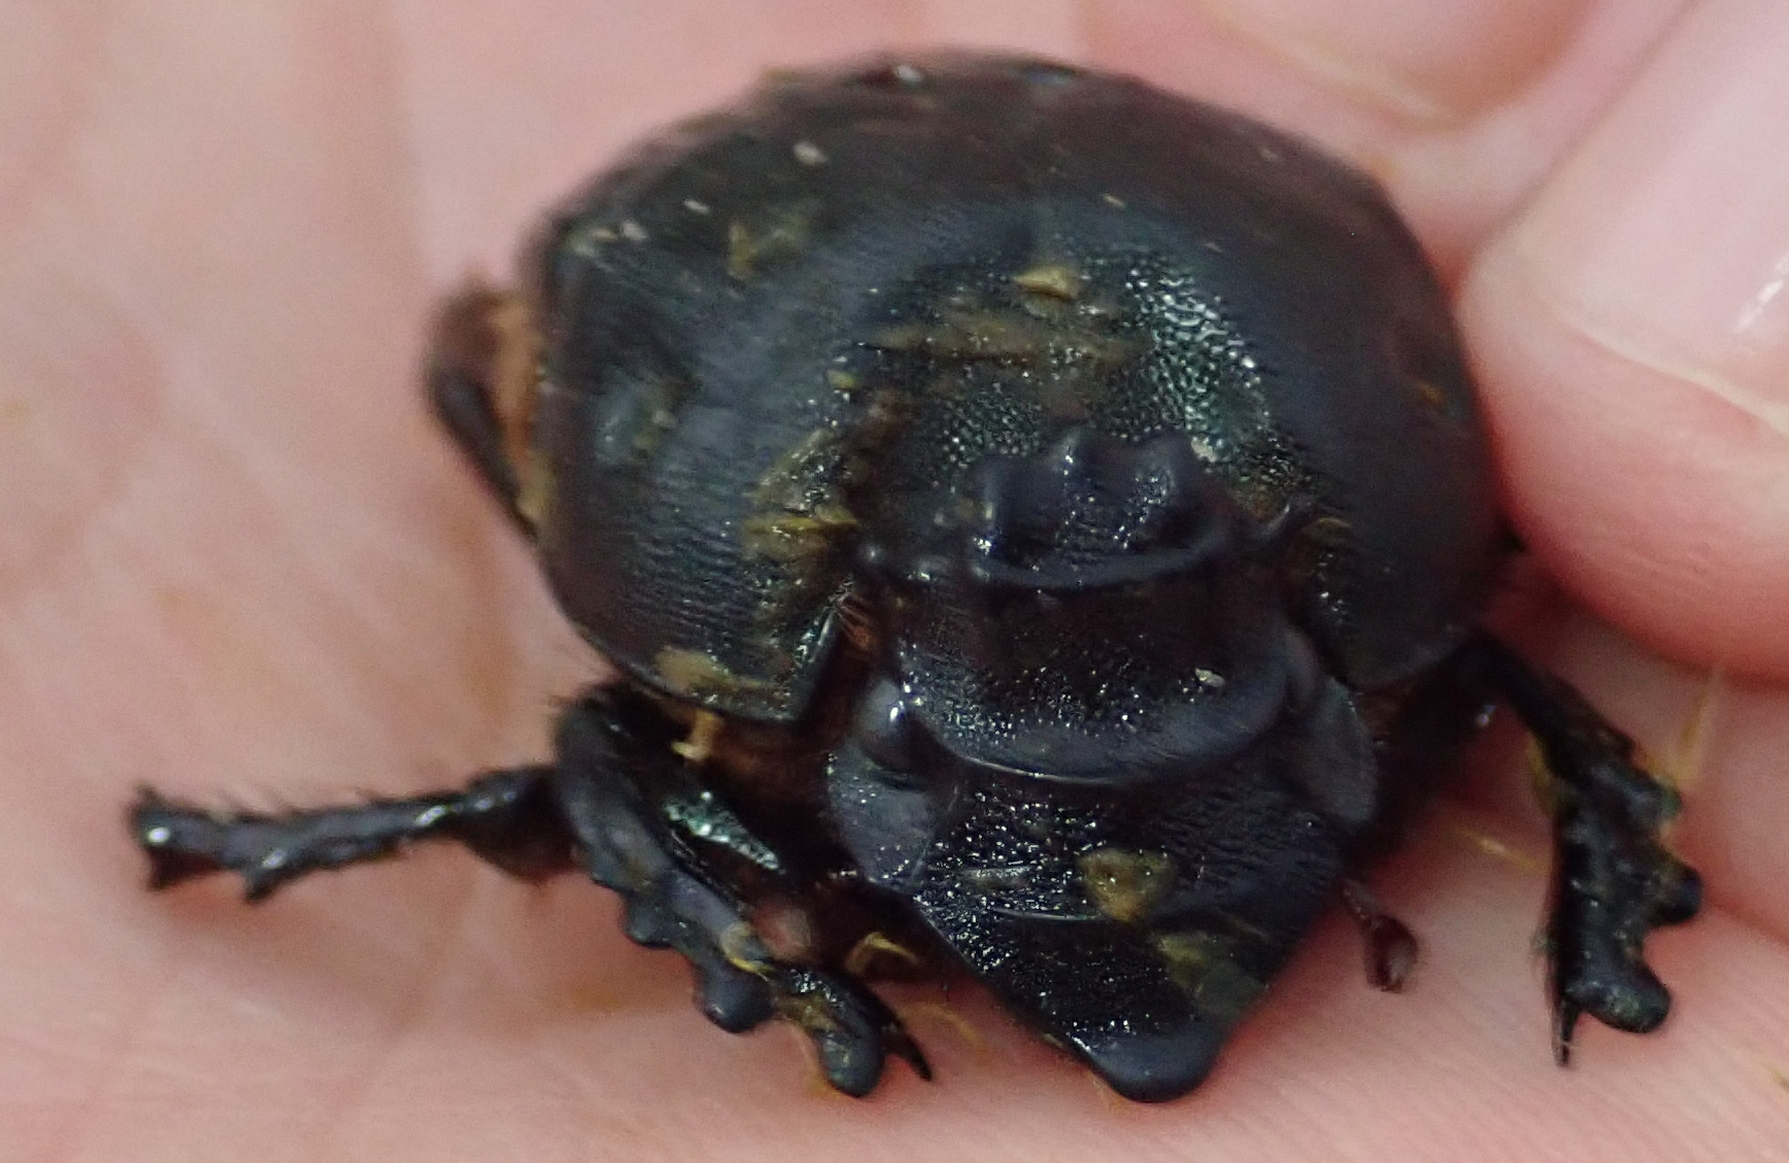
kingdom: Animalia
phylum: Arthropoda
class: Insecta
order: Coleoptera
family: Scarabaeidae
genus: Heteronitis
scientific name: Heteronitis castelnaui
